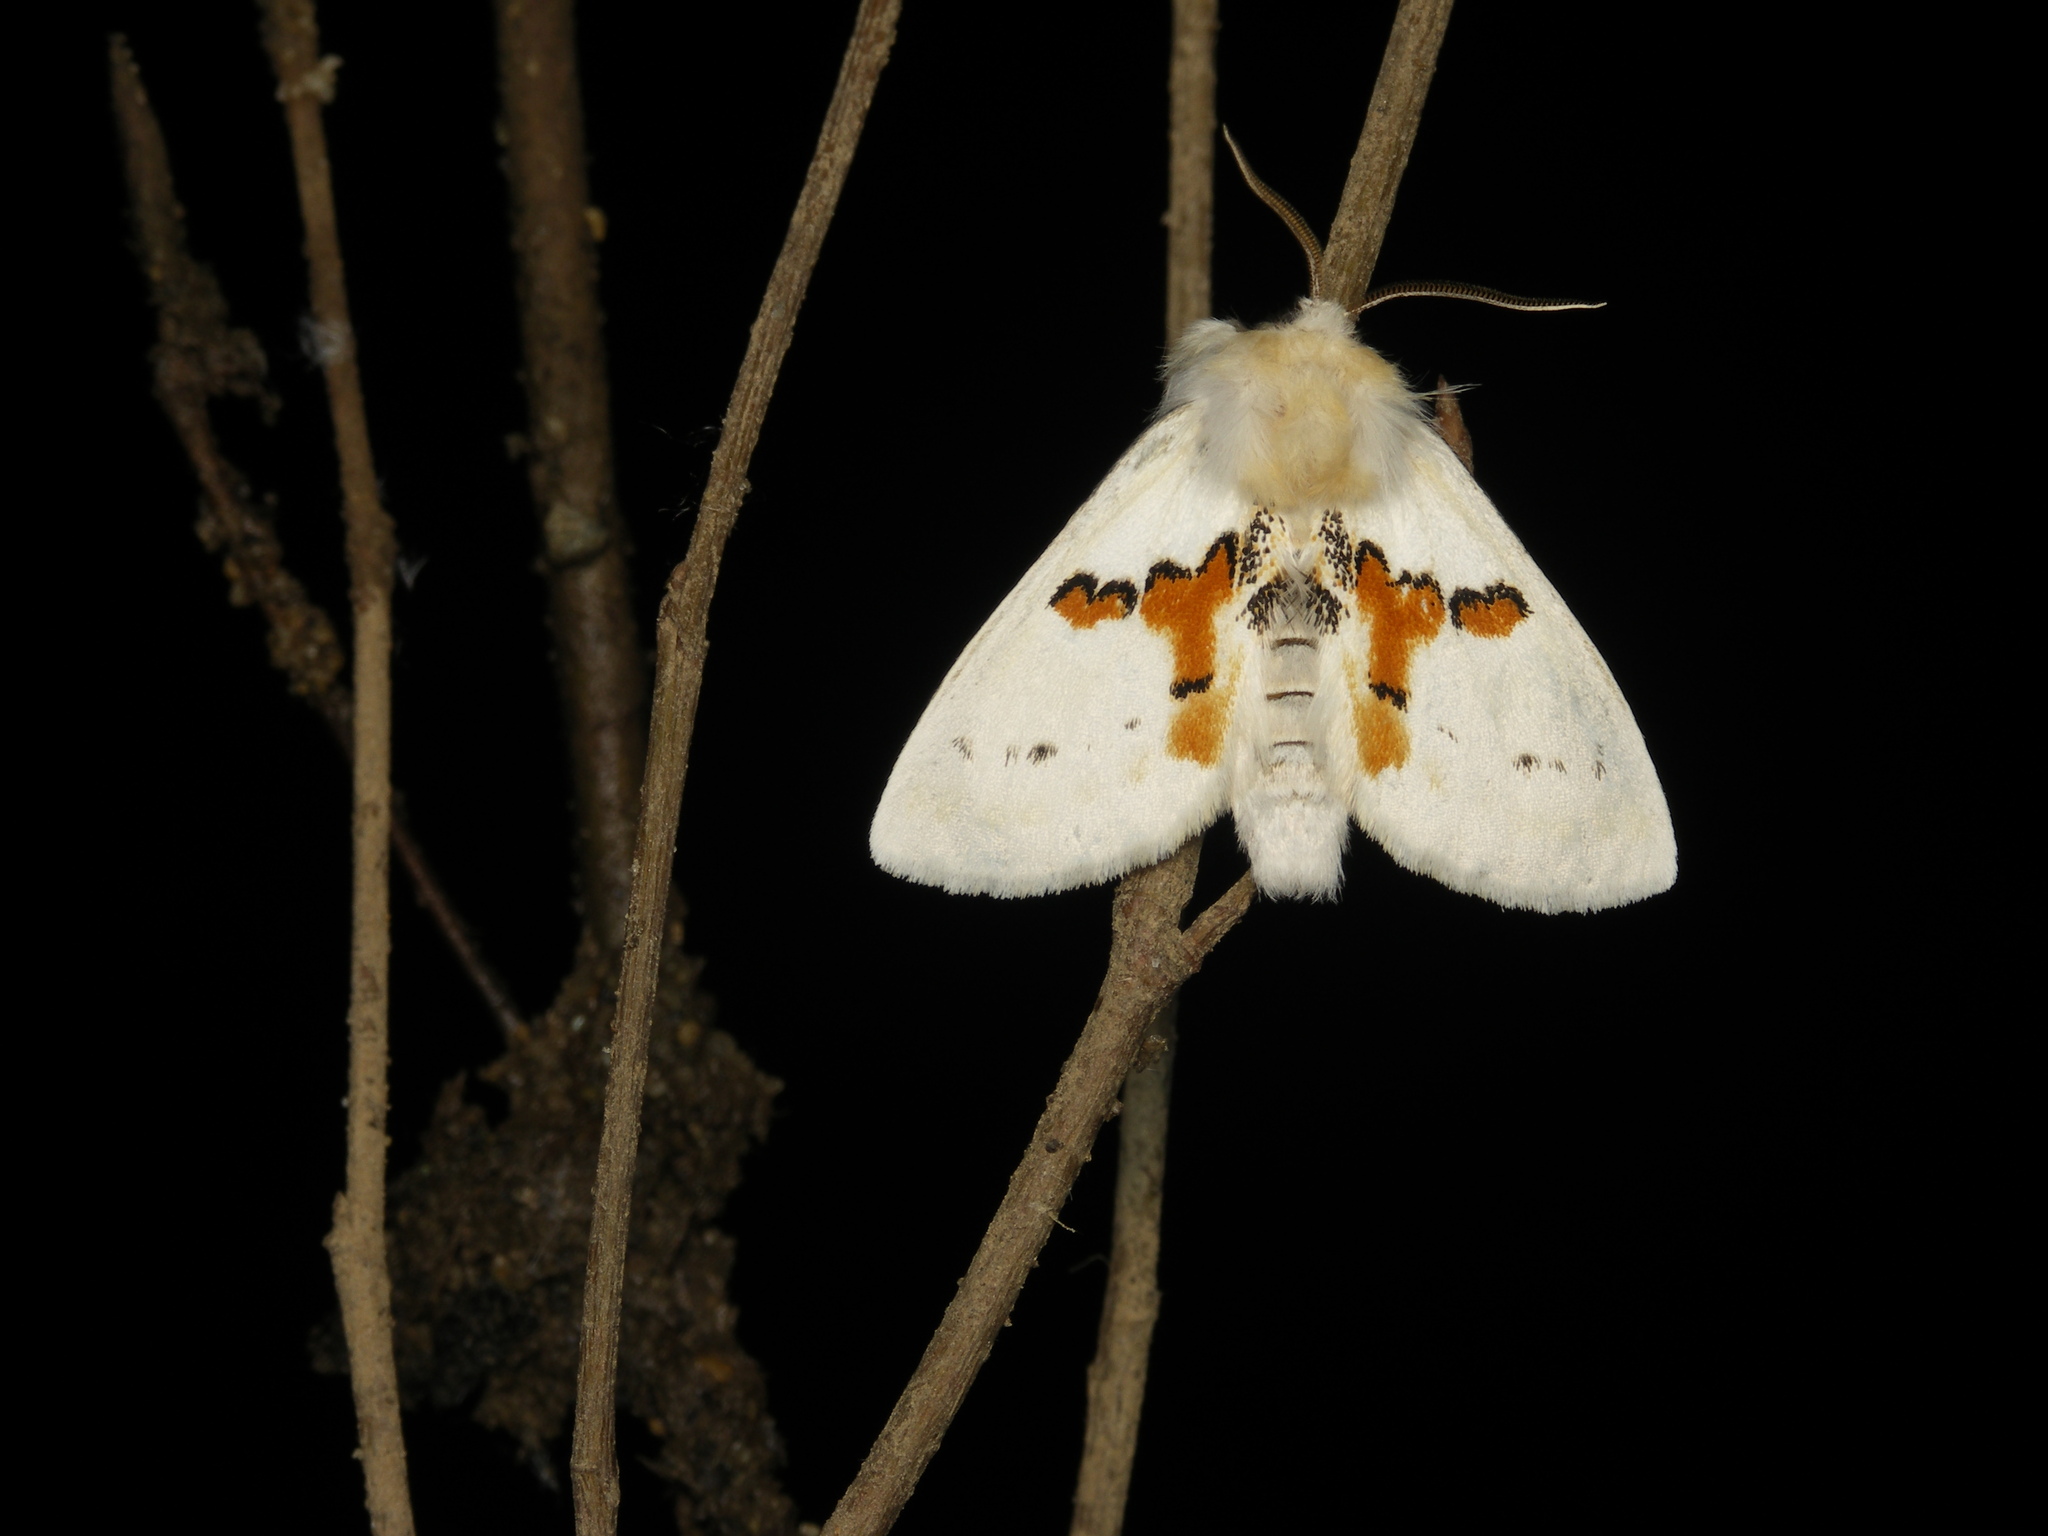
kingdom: Animalia
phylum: Arthropoda
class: Insecta
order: Lepidoptera
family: Notodontidae
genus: Leucodonta
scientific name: Leucodonta bicoloria
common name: White prominent
